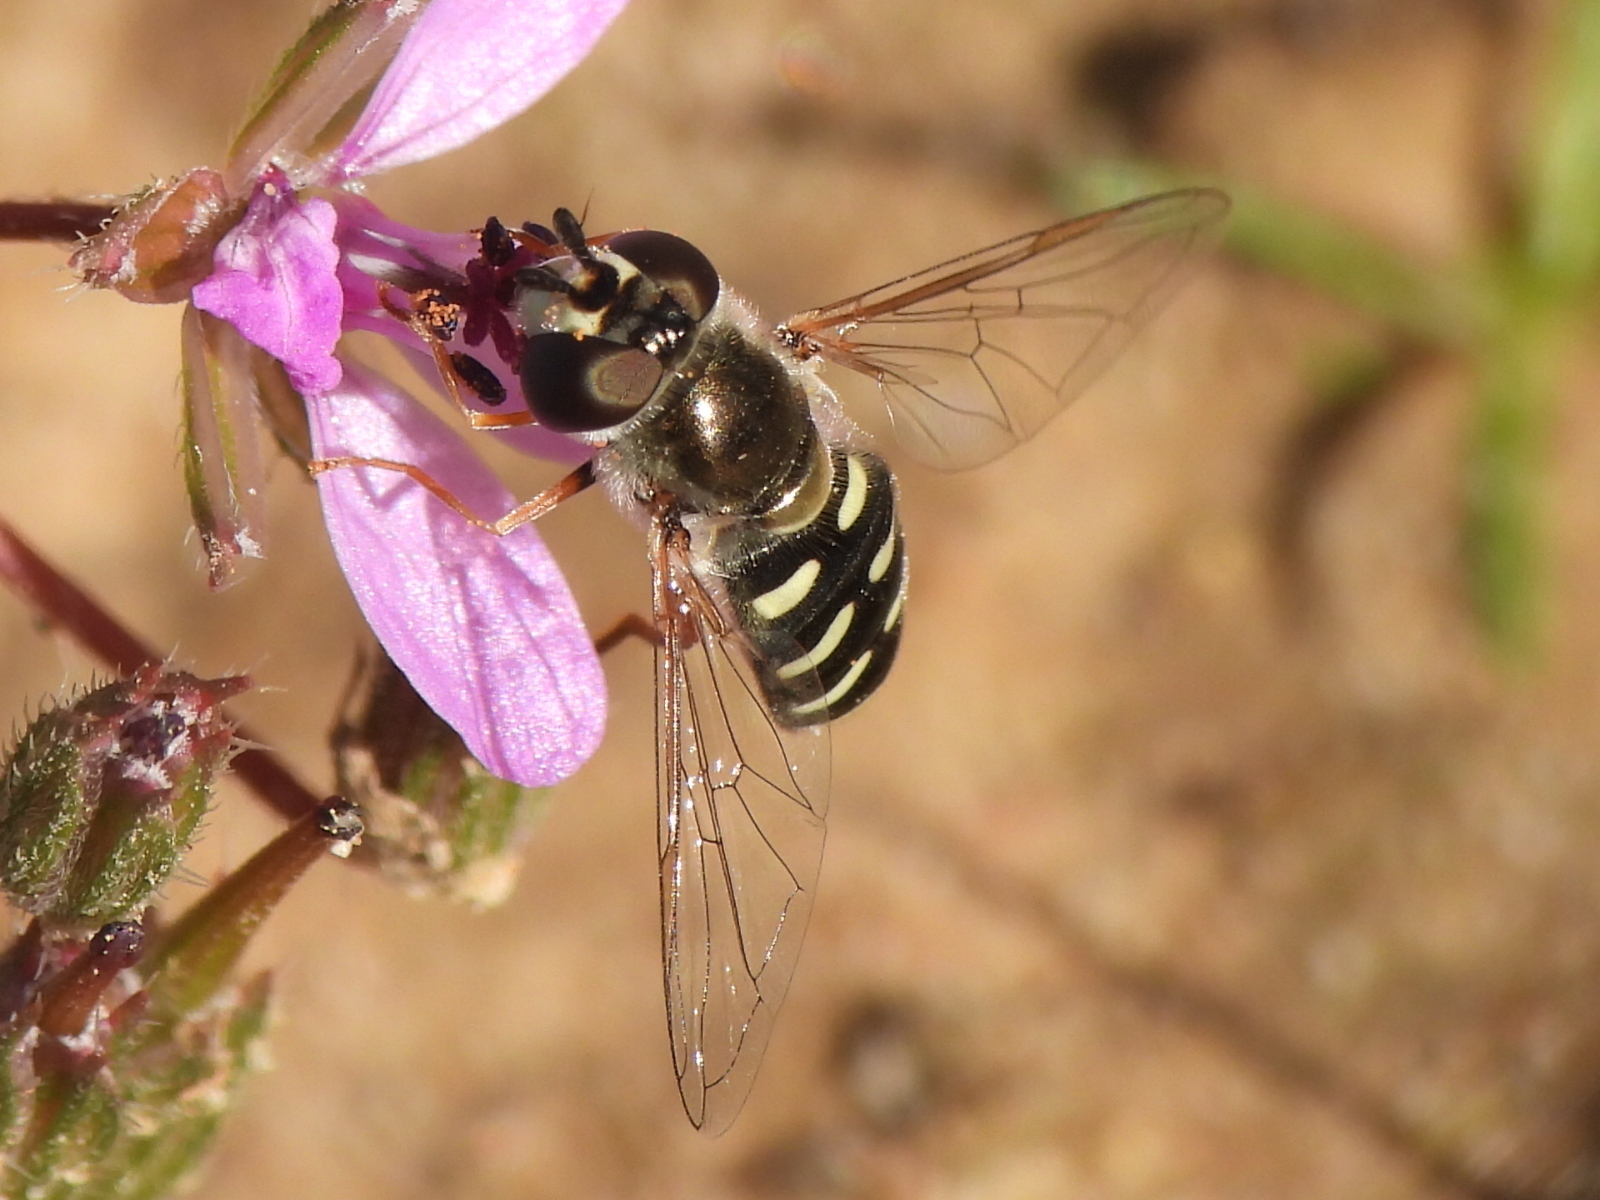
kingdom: Animalia
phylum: Arthropoda
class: Insecta
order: Diptera
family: Syrphidae
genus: Eupeodes
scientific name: Eupeodes volucris
